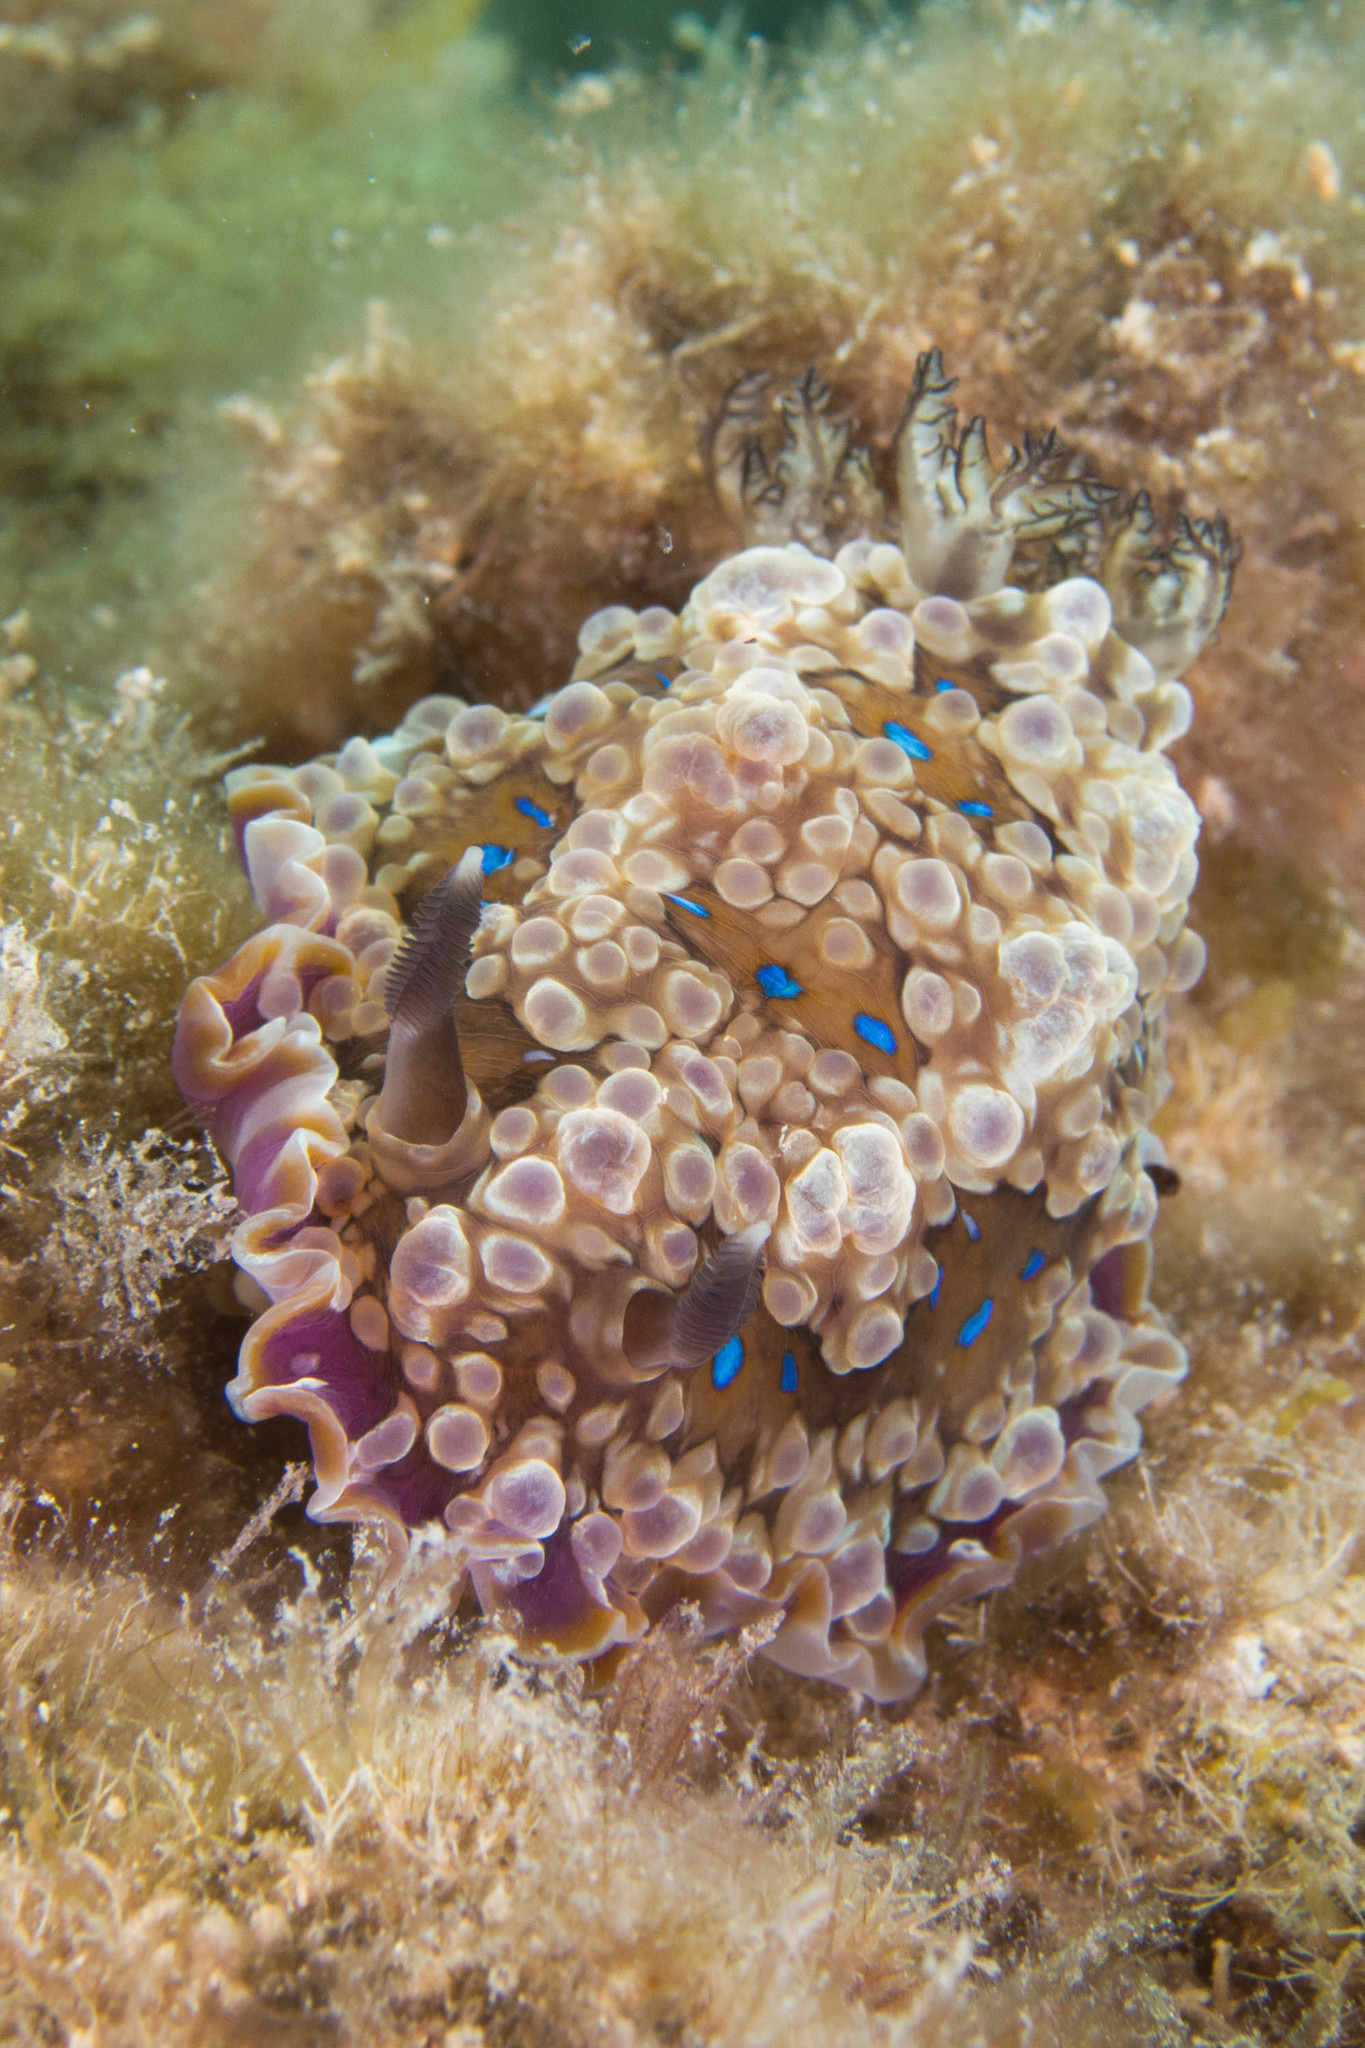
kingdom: Animalia
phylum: Mollusca
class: Gastropoda
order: Nudibranchia
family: Dendrodorididae
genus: Dendrodoris
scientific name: Dendrodoris krusensternii
